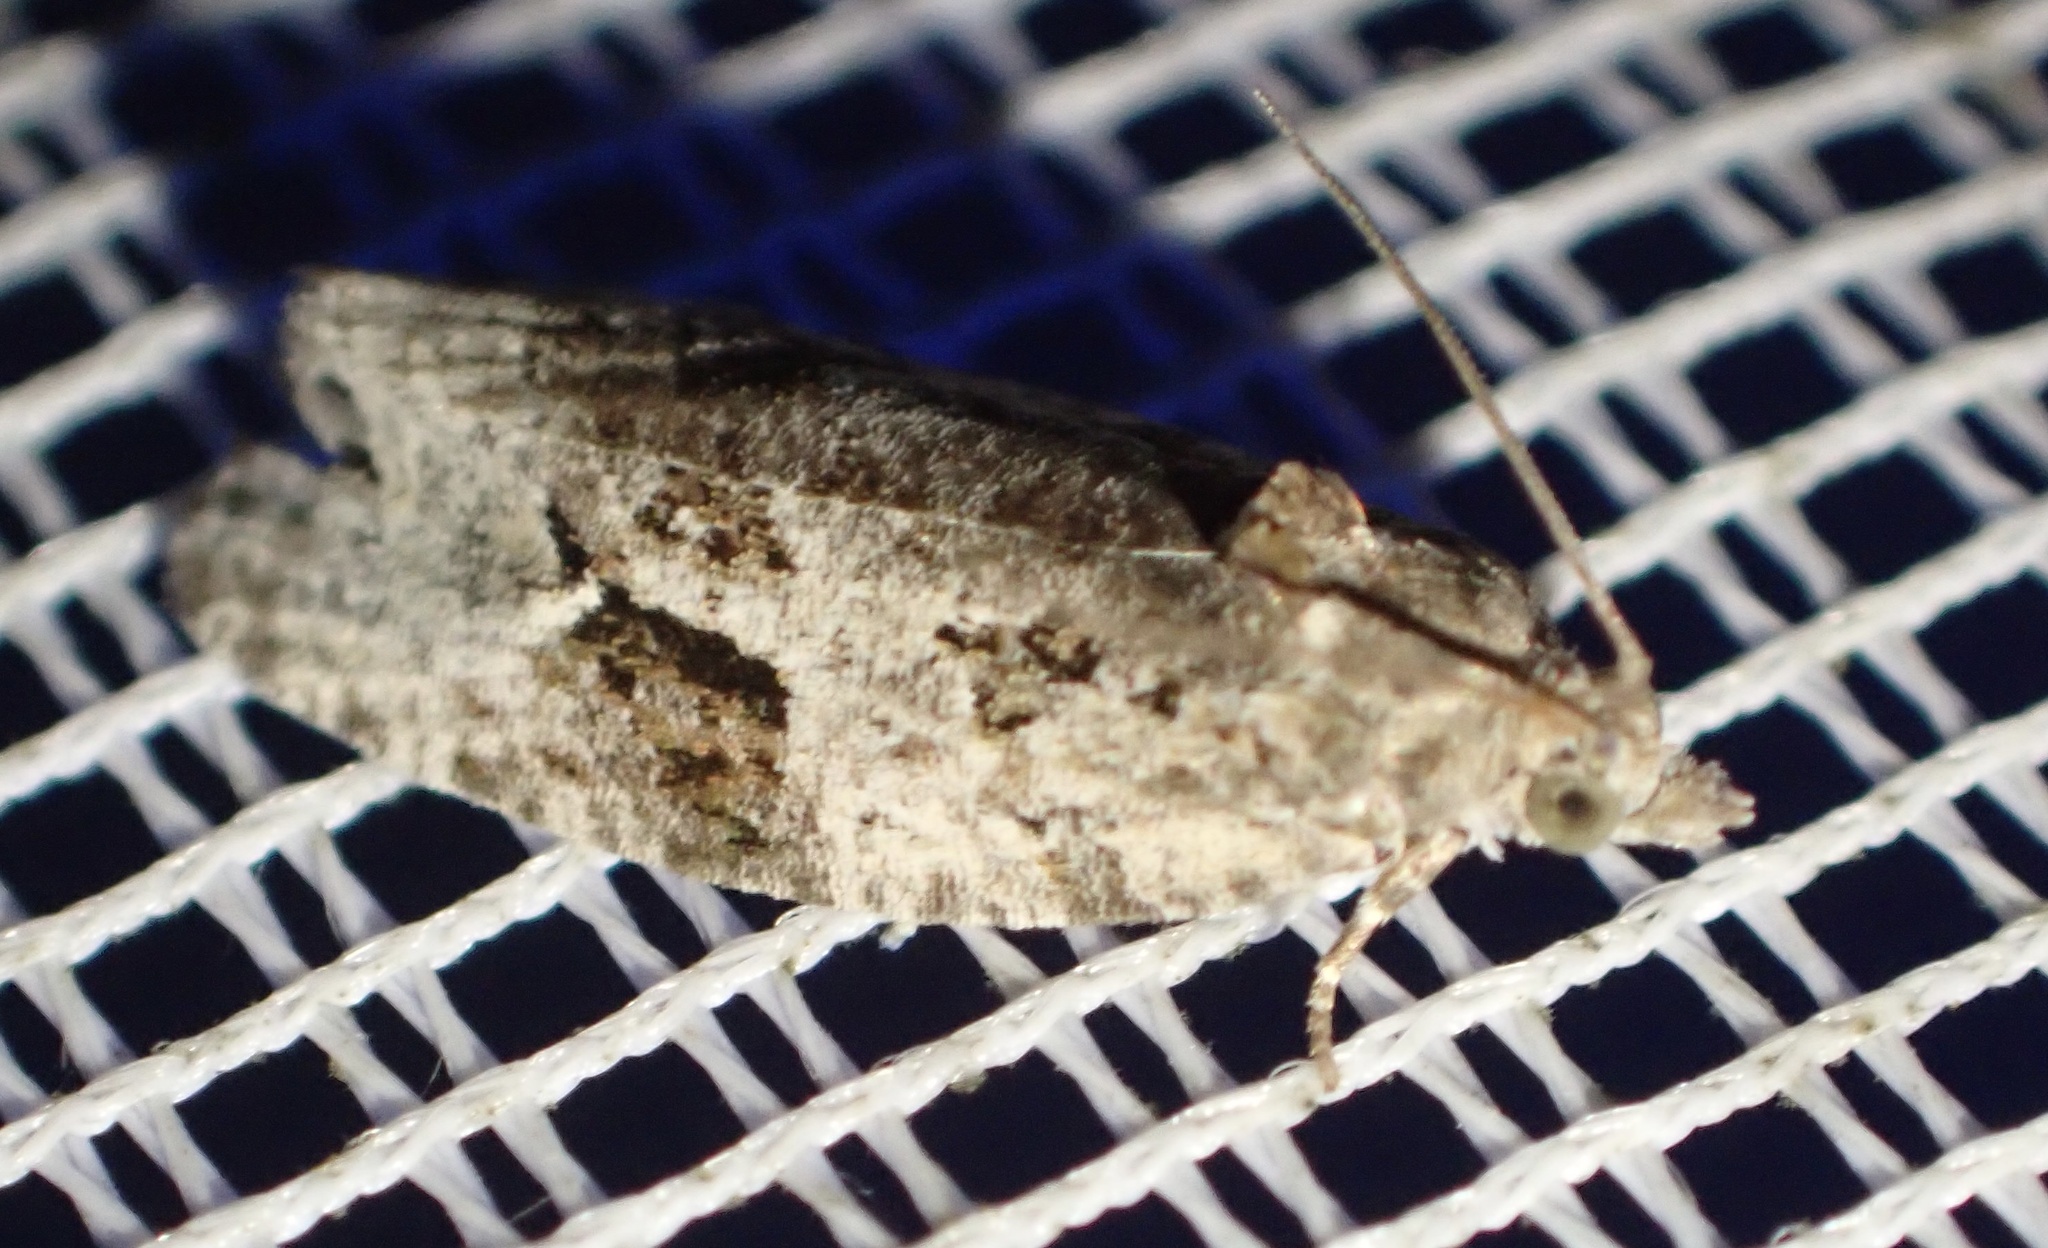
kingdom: Animalia
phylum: Arthropoda
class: Insecta
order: Lepidoptera
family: Tortricidae
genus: Apotomis
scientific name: Apotomis lineana
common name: Willow marble
